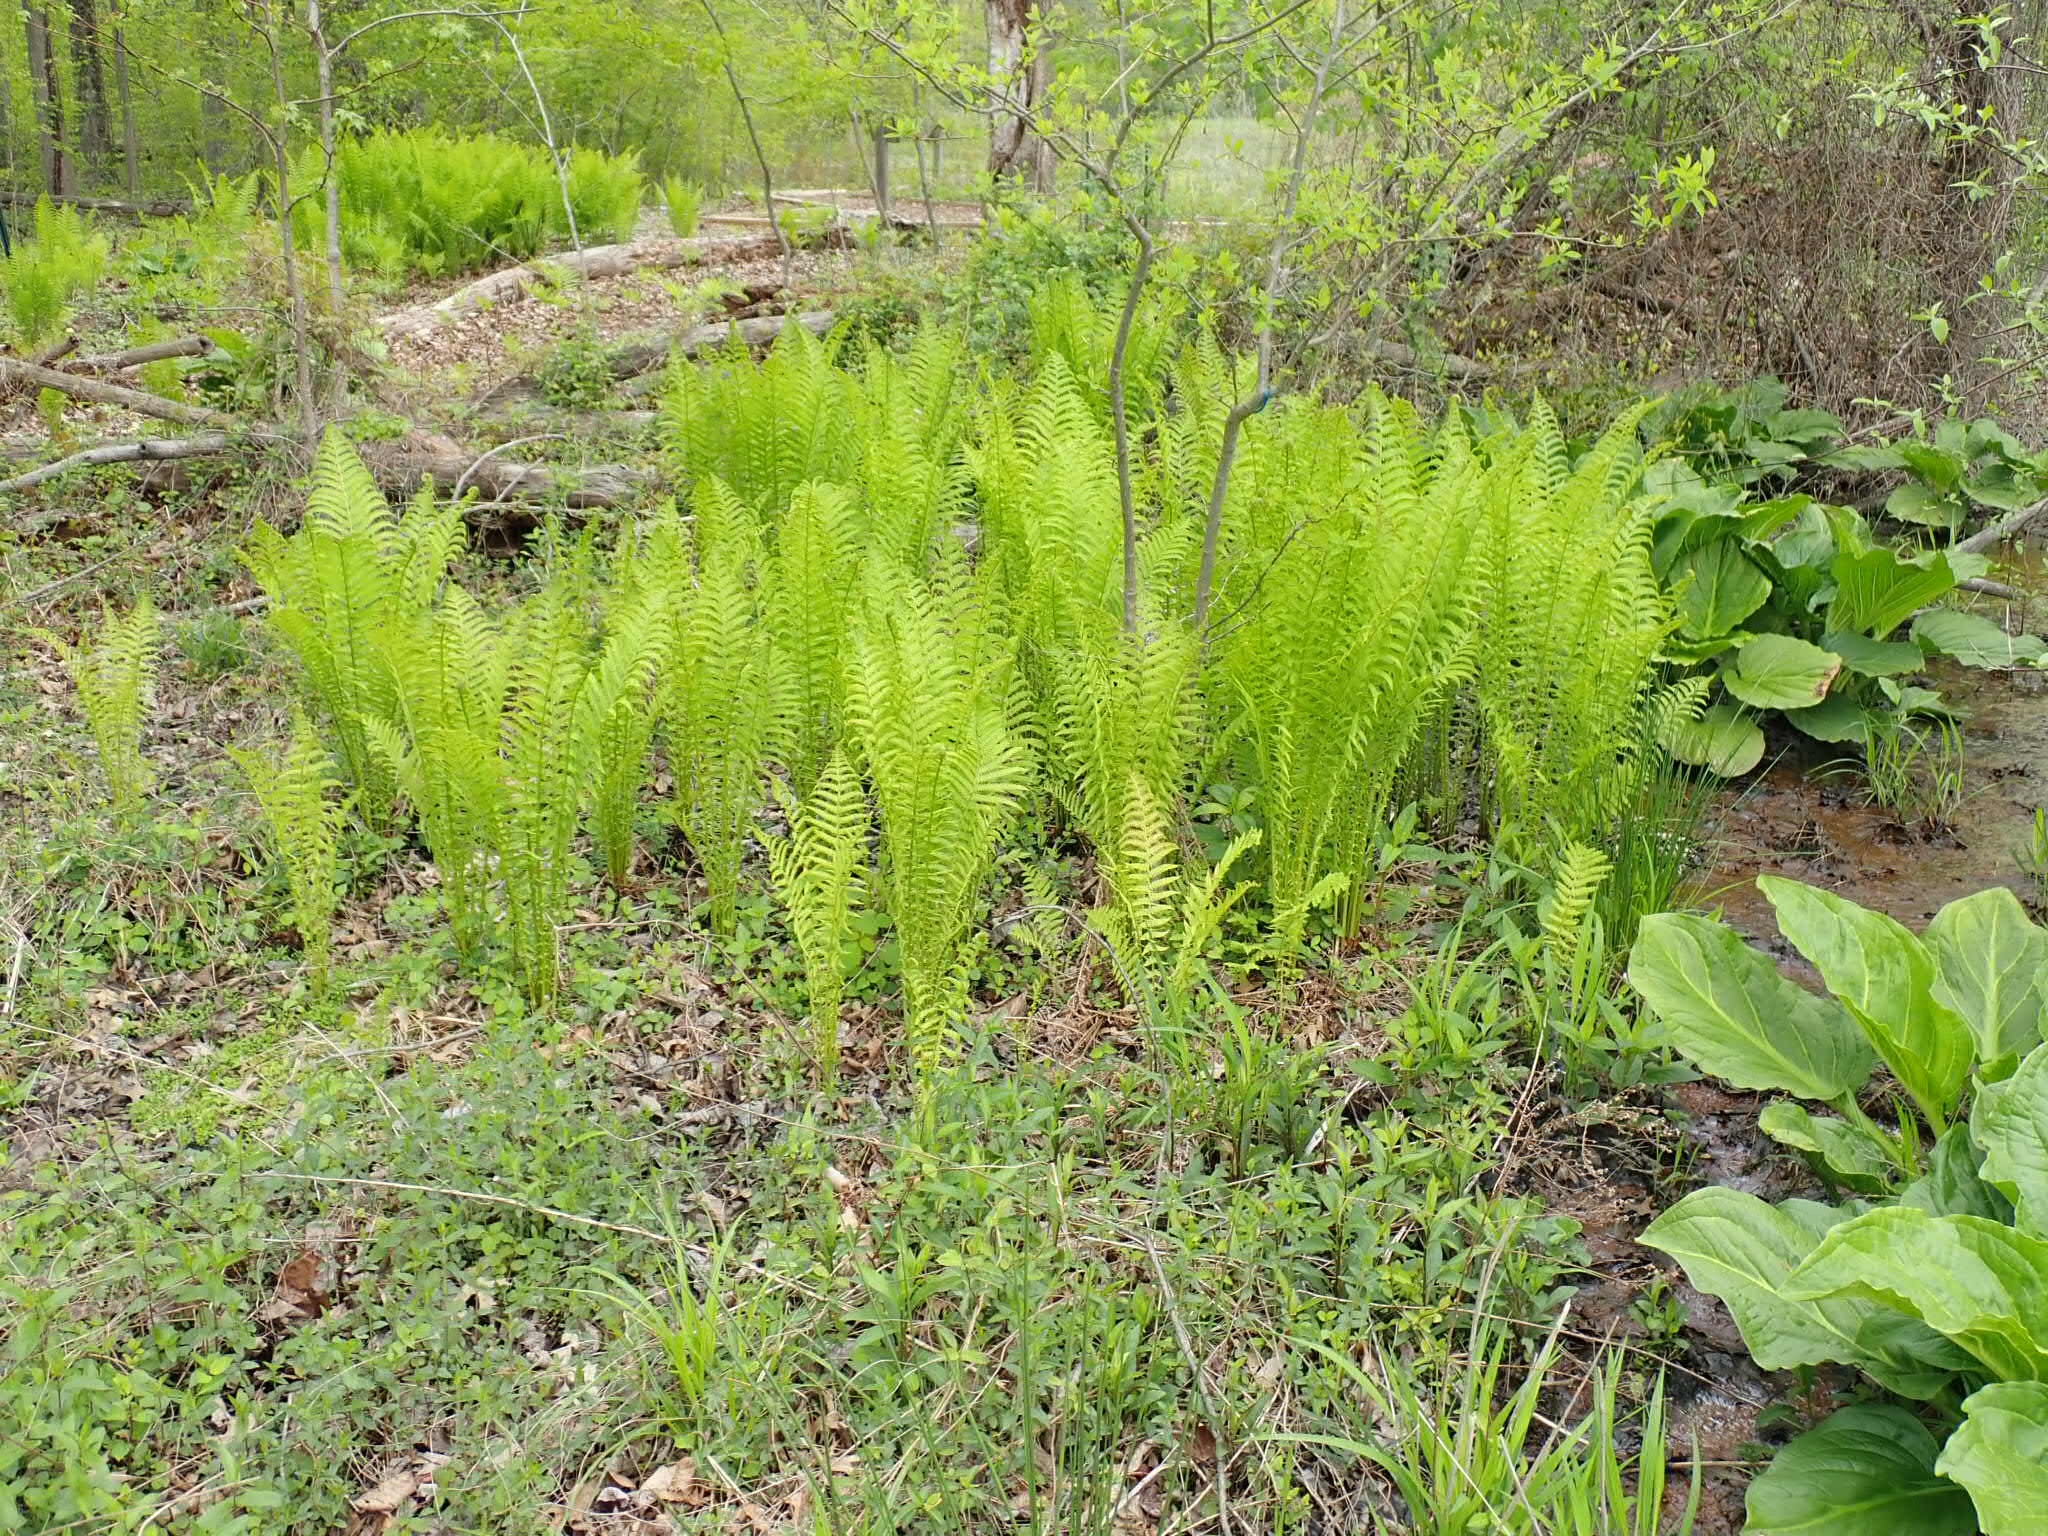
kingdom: Plantae
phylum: Tracheophyta
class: Polypodiopsida
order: Polypodiales
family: Onocleaceae
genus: Matteuccia
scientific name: Matteuccia struthiopteris
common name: Ostrich fern
